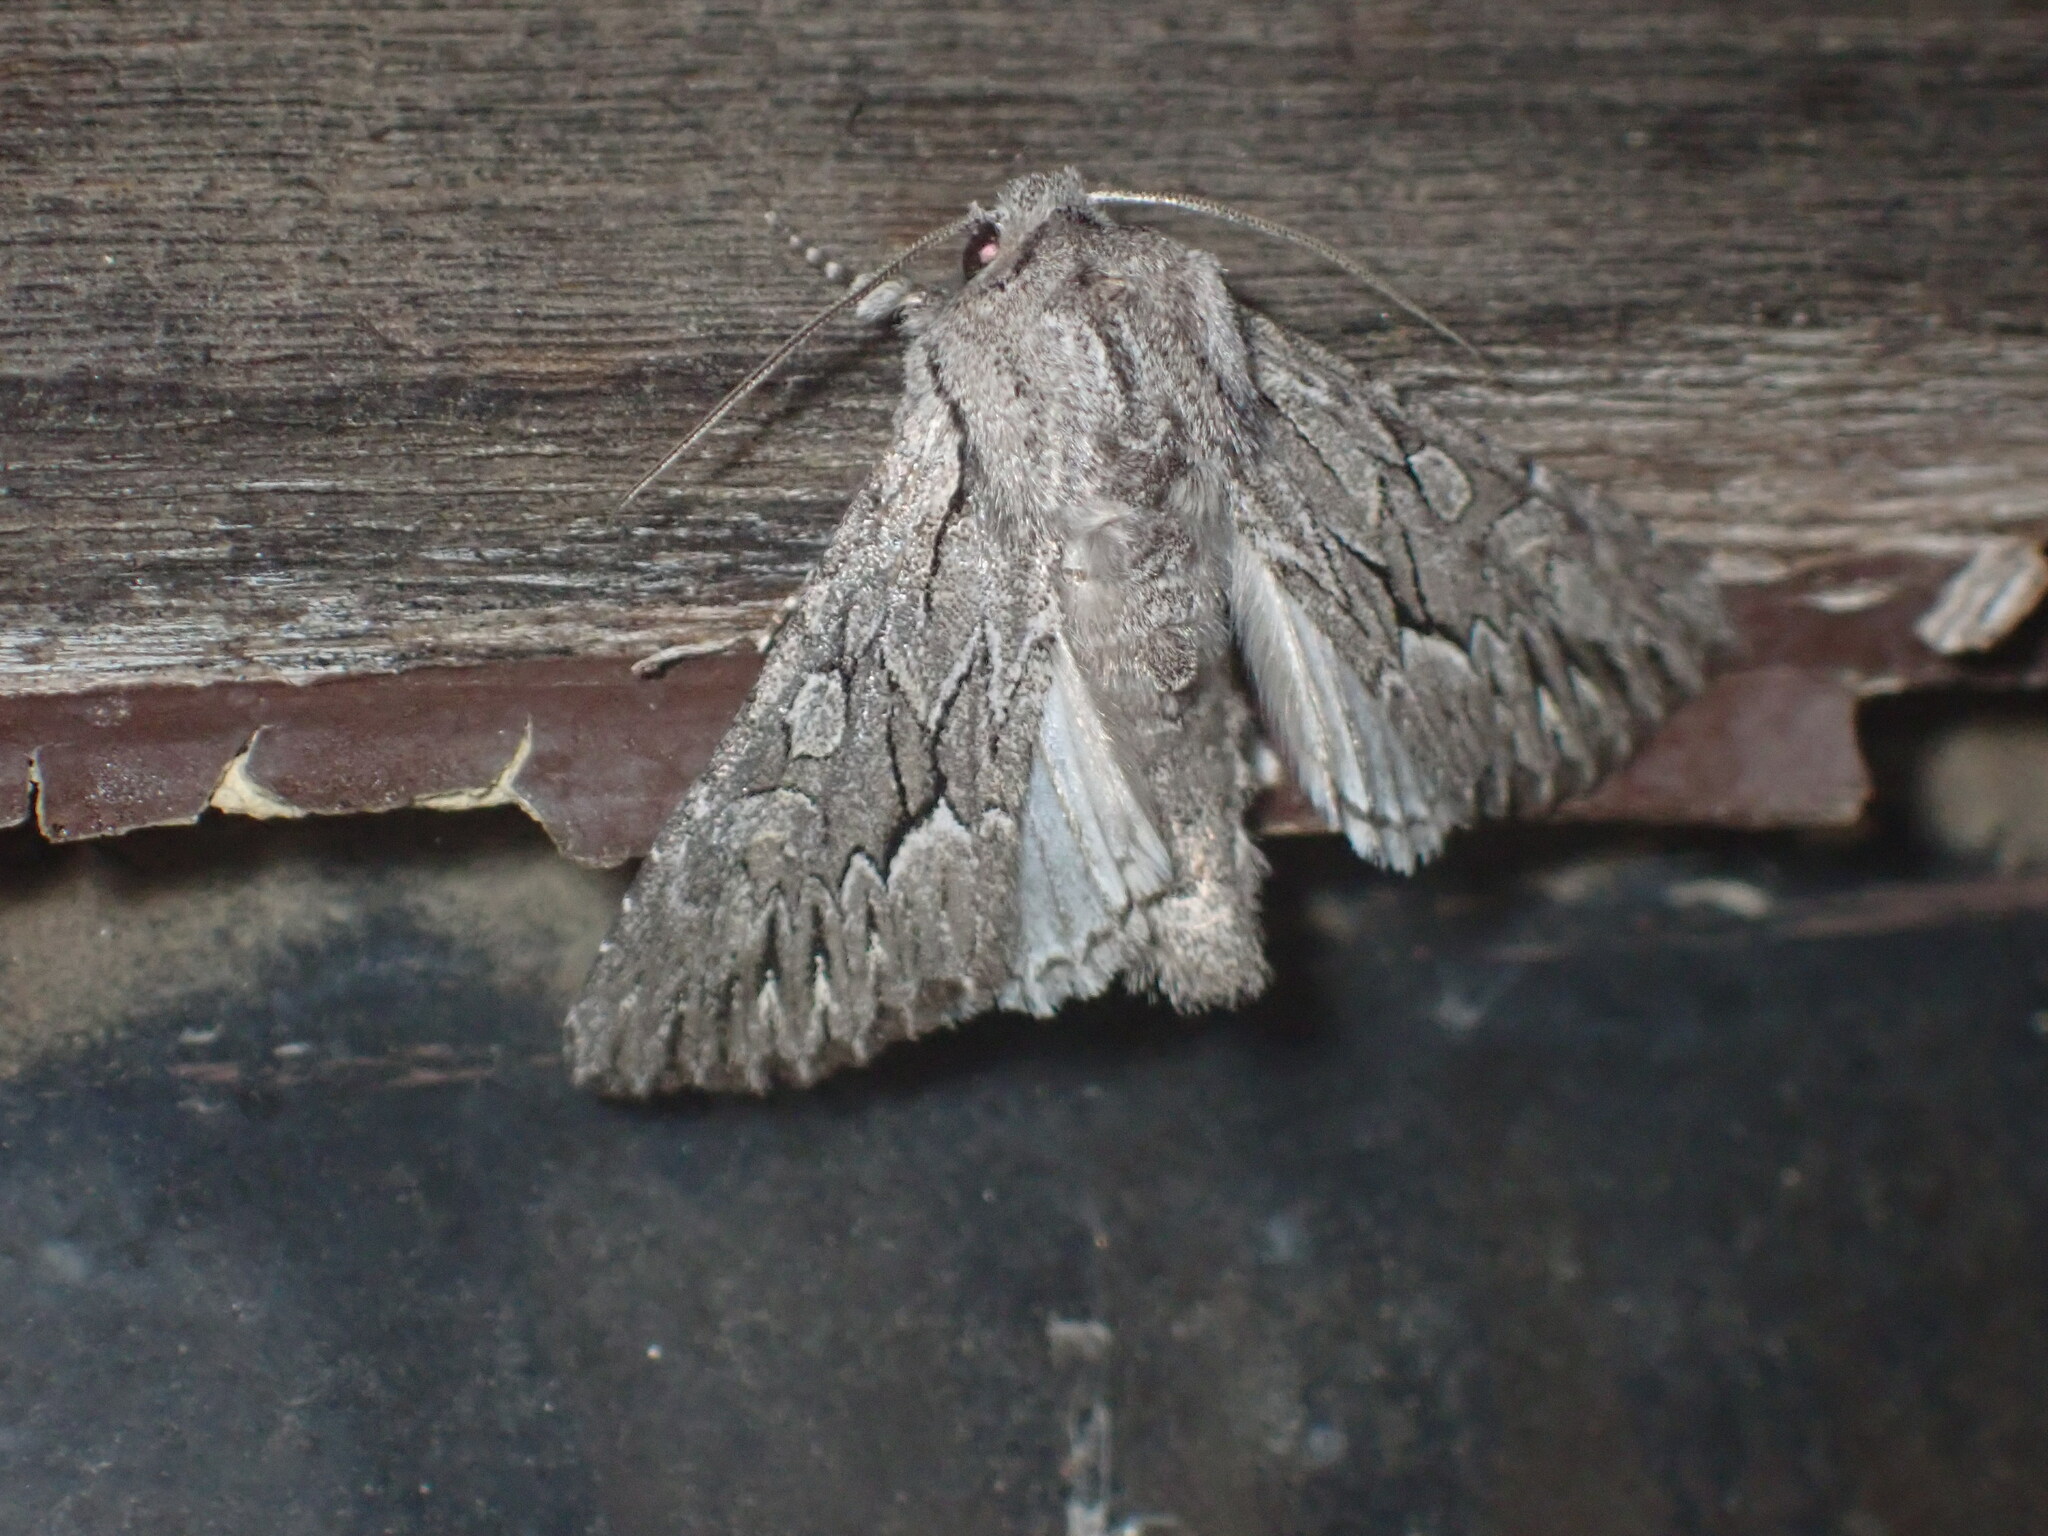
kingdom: Animalia
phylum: Arthropoda
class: Insecta
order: Lepidoptera
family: Noctuidae
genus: Apamea
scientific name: Apamea longula
